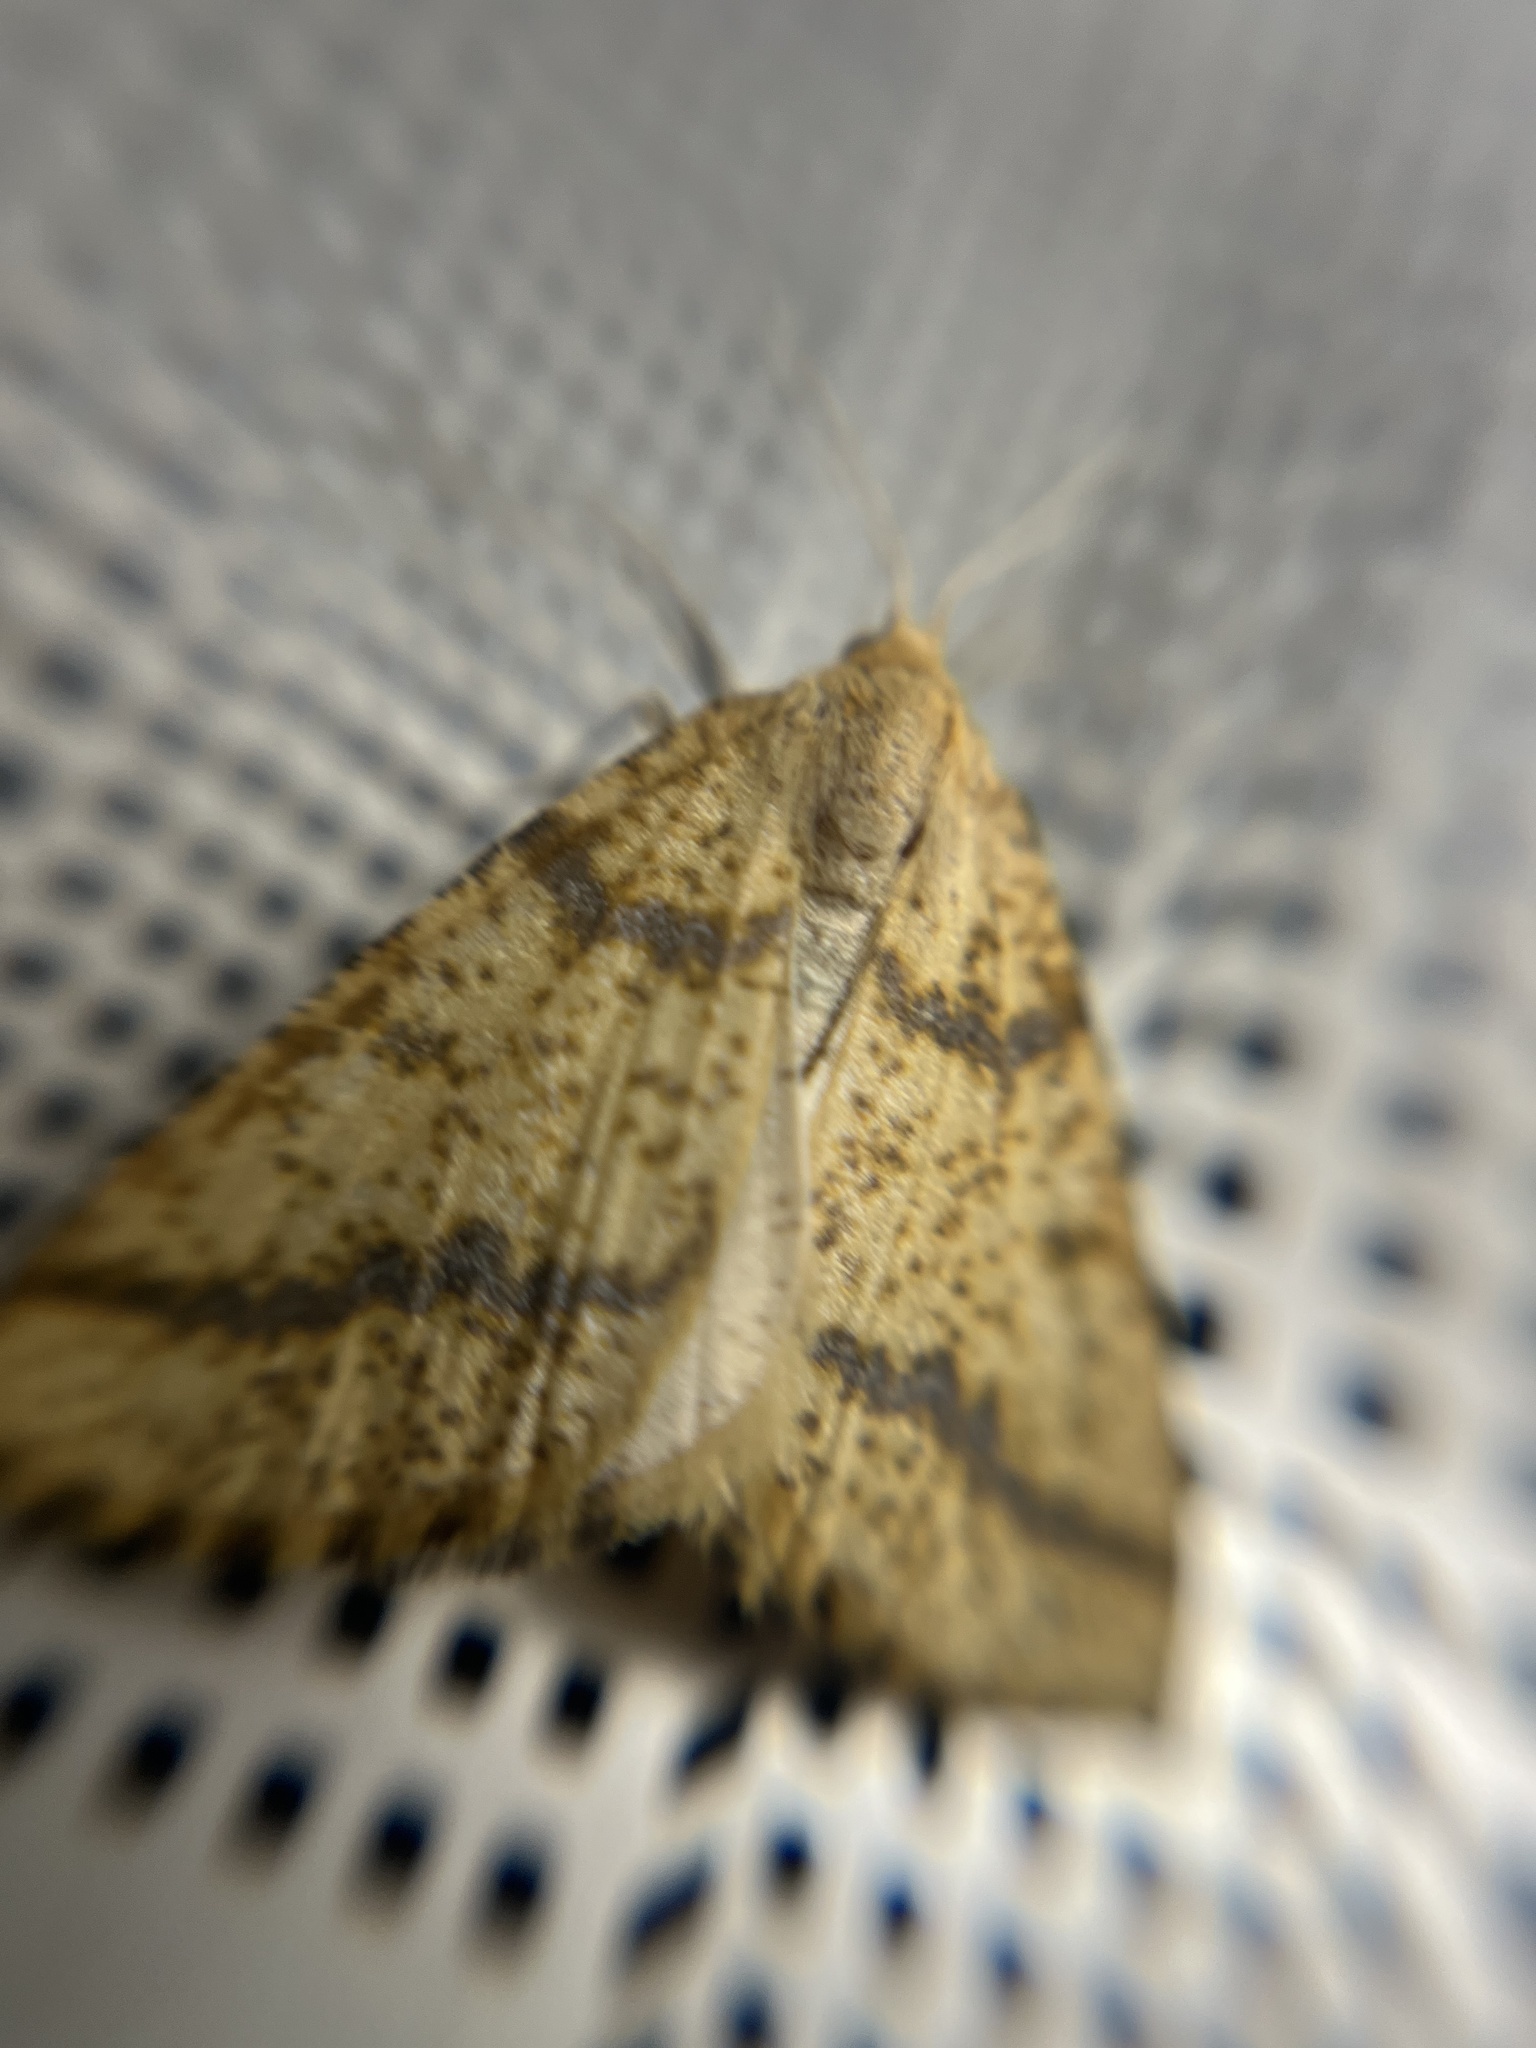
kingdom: Animalia
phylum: Arthropoda
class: Insecta
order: Lepidoptera
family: Geometridae
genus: Aspitates
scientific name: Aspitates ochrearia
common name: Yellow belle
